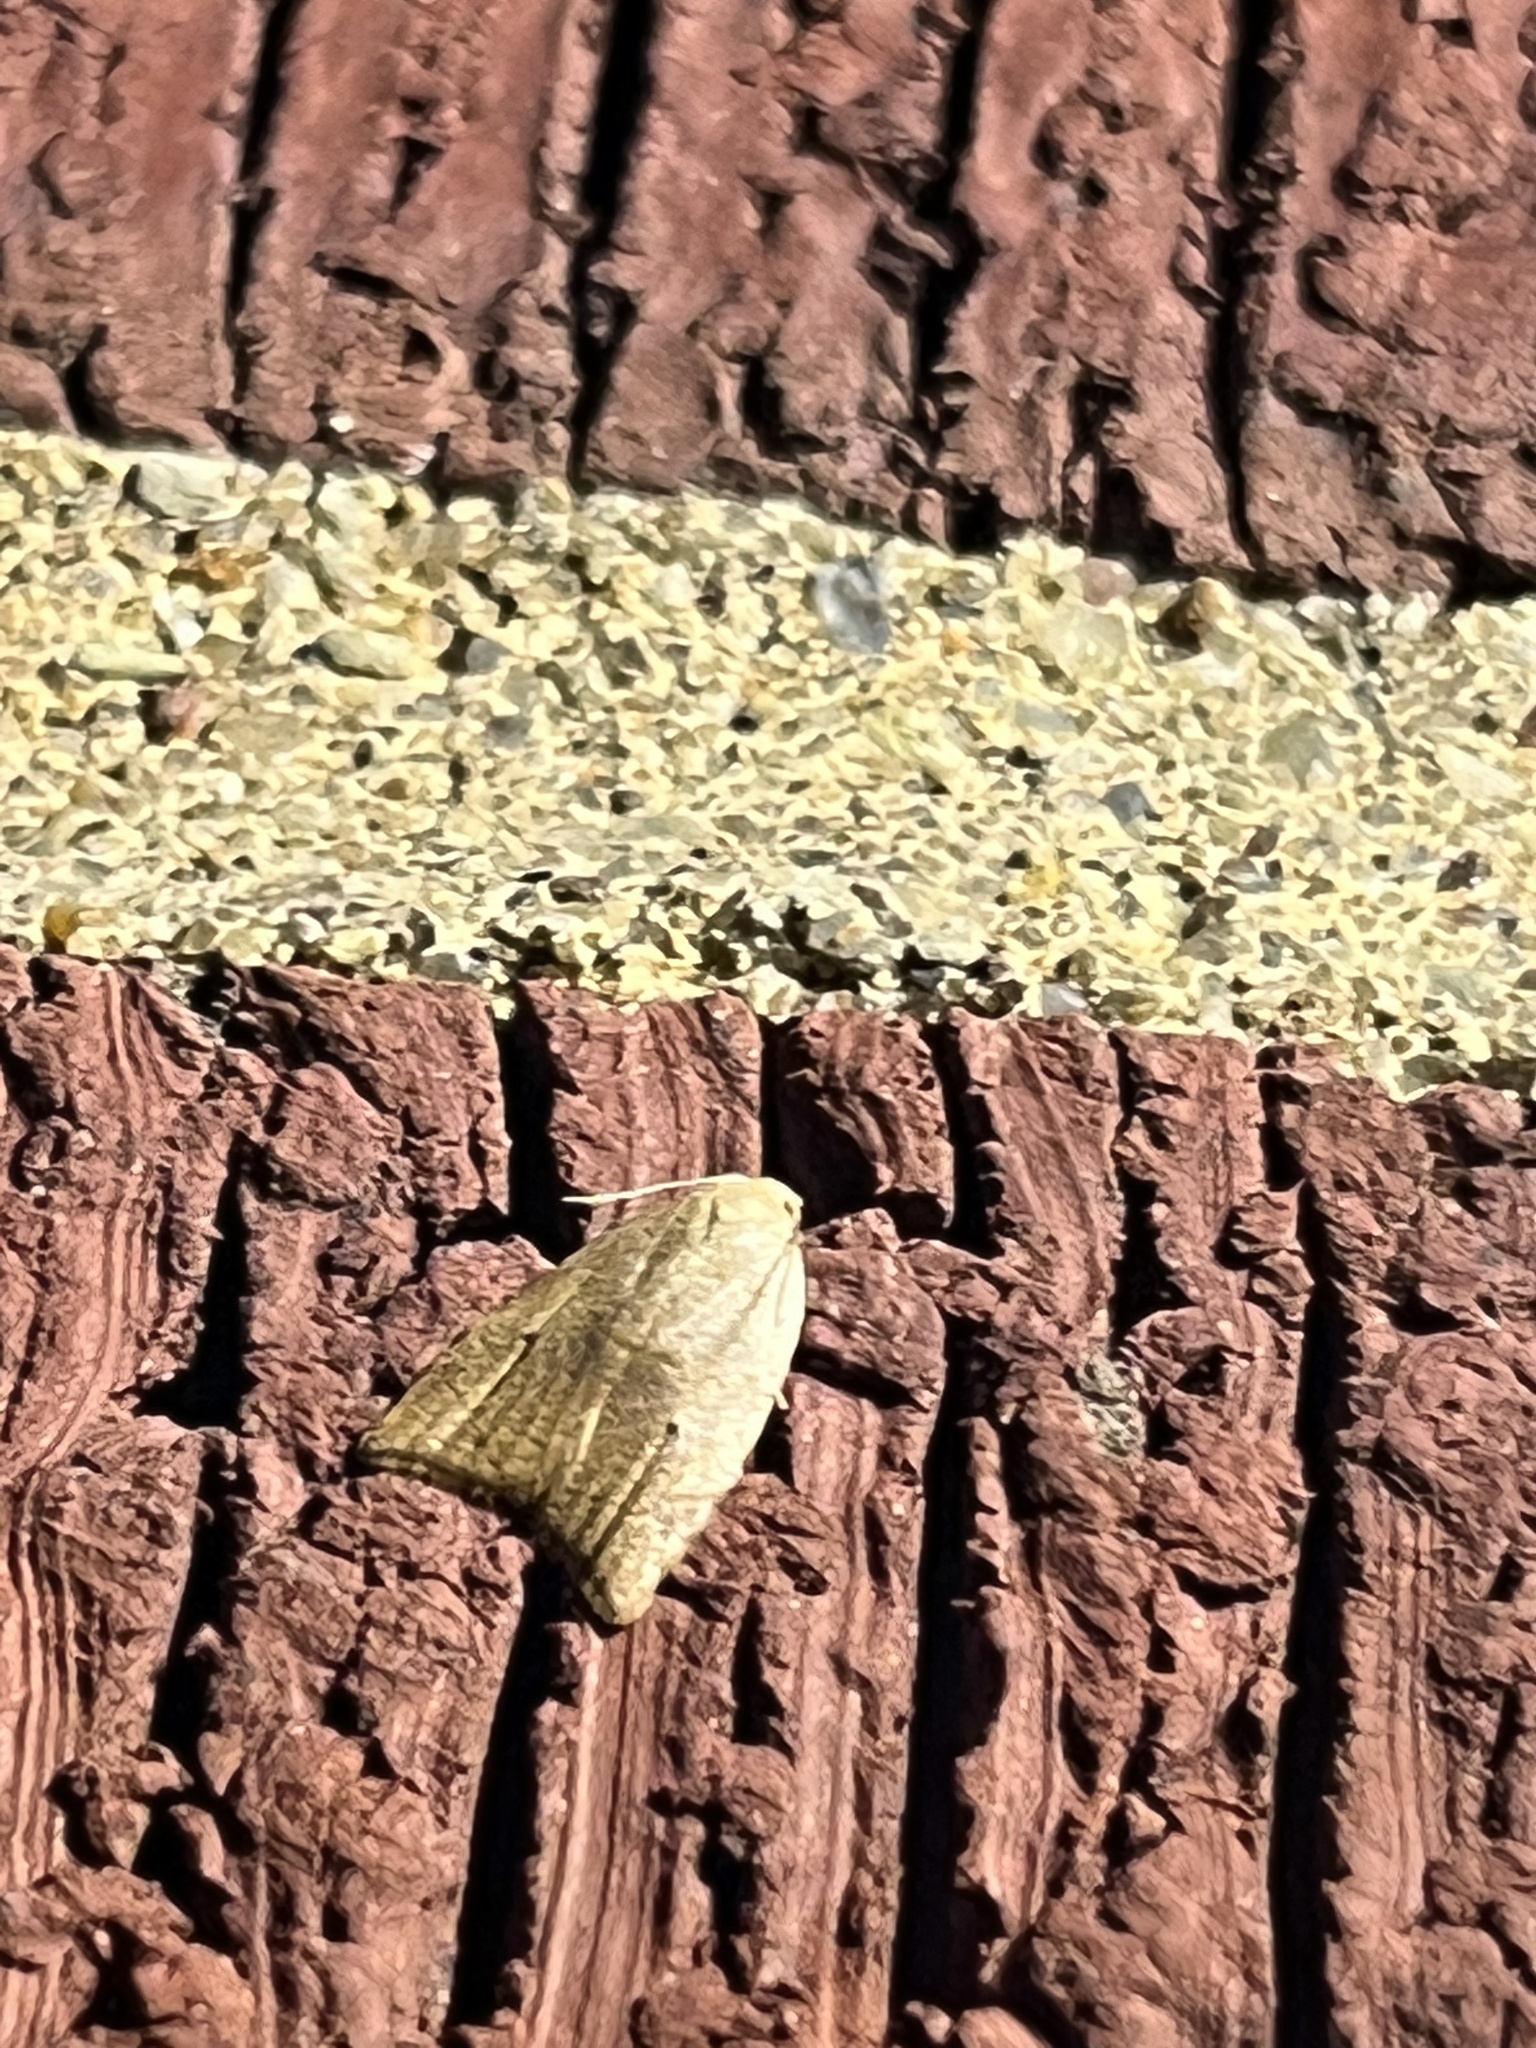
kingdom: Animalia
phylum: Arthropoda
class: Insecta
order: Lepidoptera
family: Tortricidae
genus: Coelostathma
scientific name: Coelostathma discopunctana
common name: Batman moth
